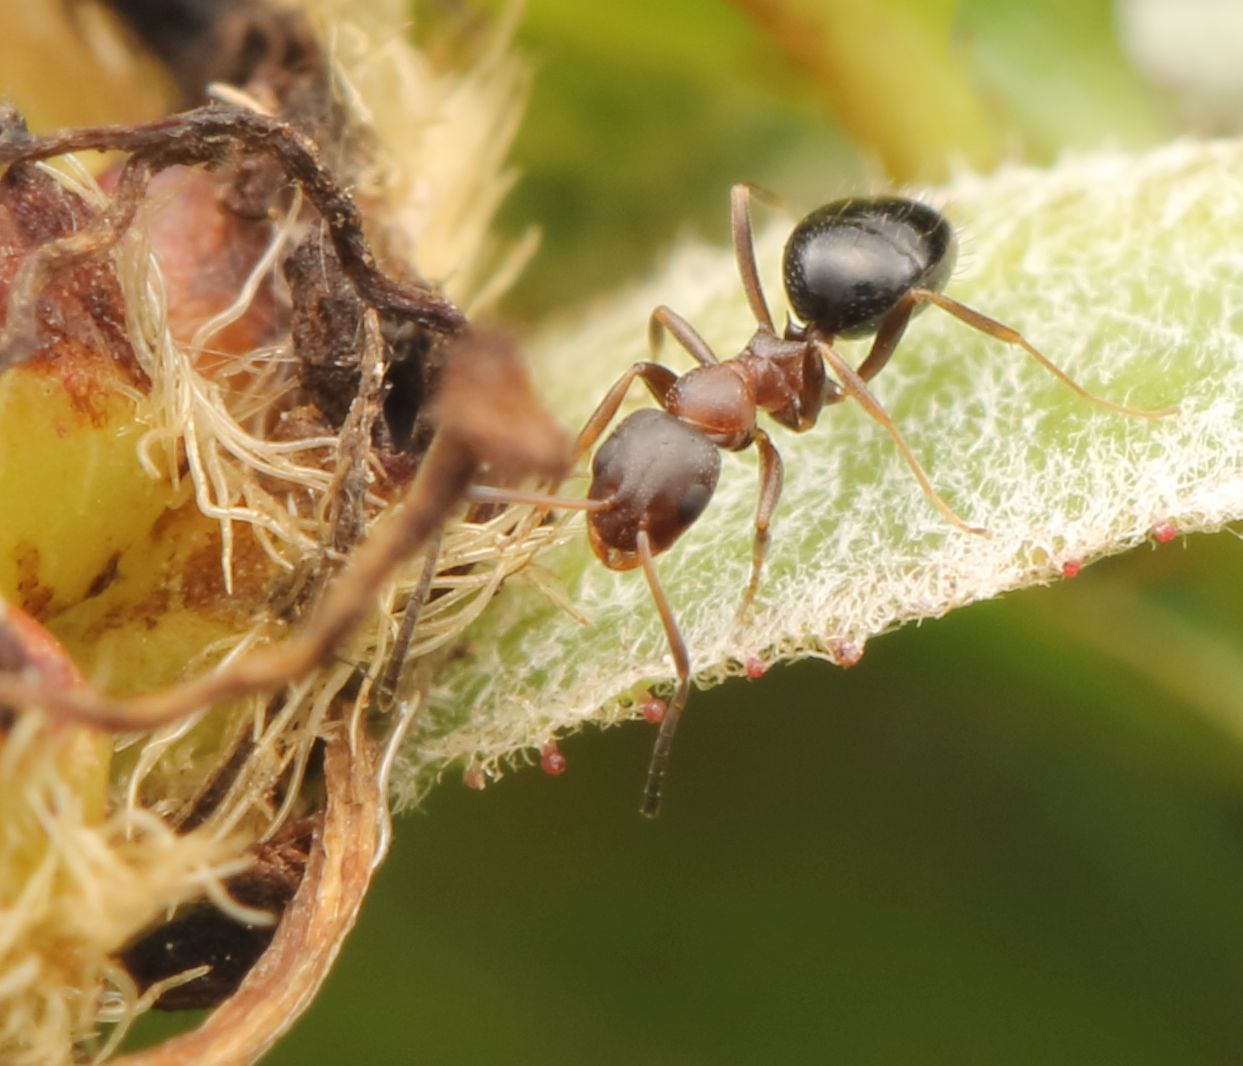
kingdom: Animalia
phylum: Arthropoda
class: Insecta
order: Hymenoptera
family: Formicidae
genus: Lepisiota
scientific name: Lepisiota spinosior
